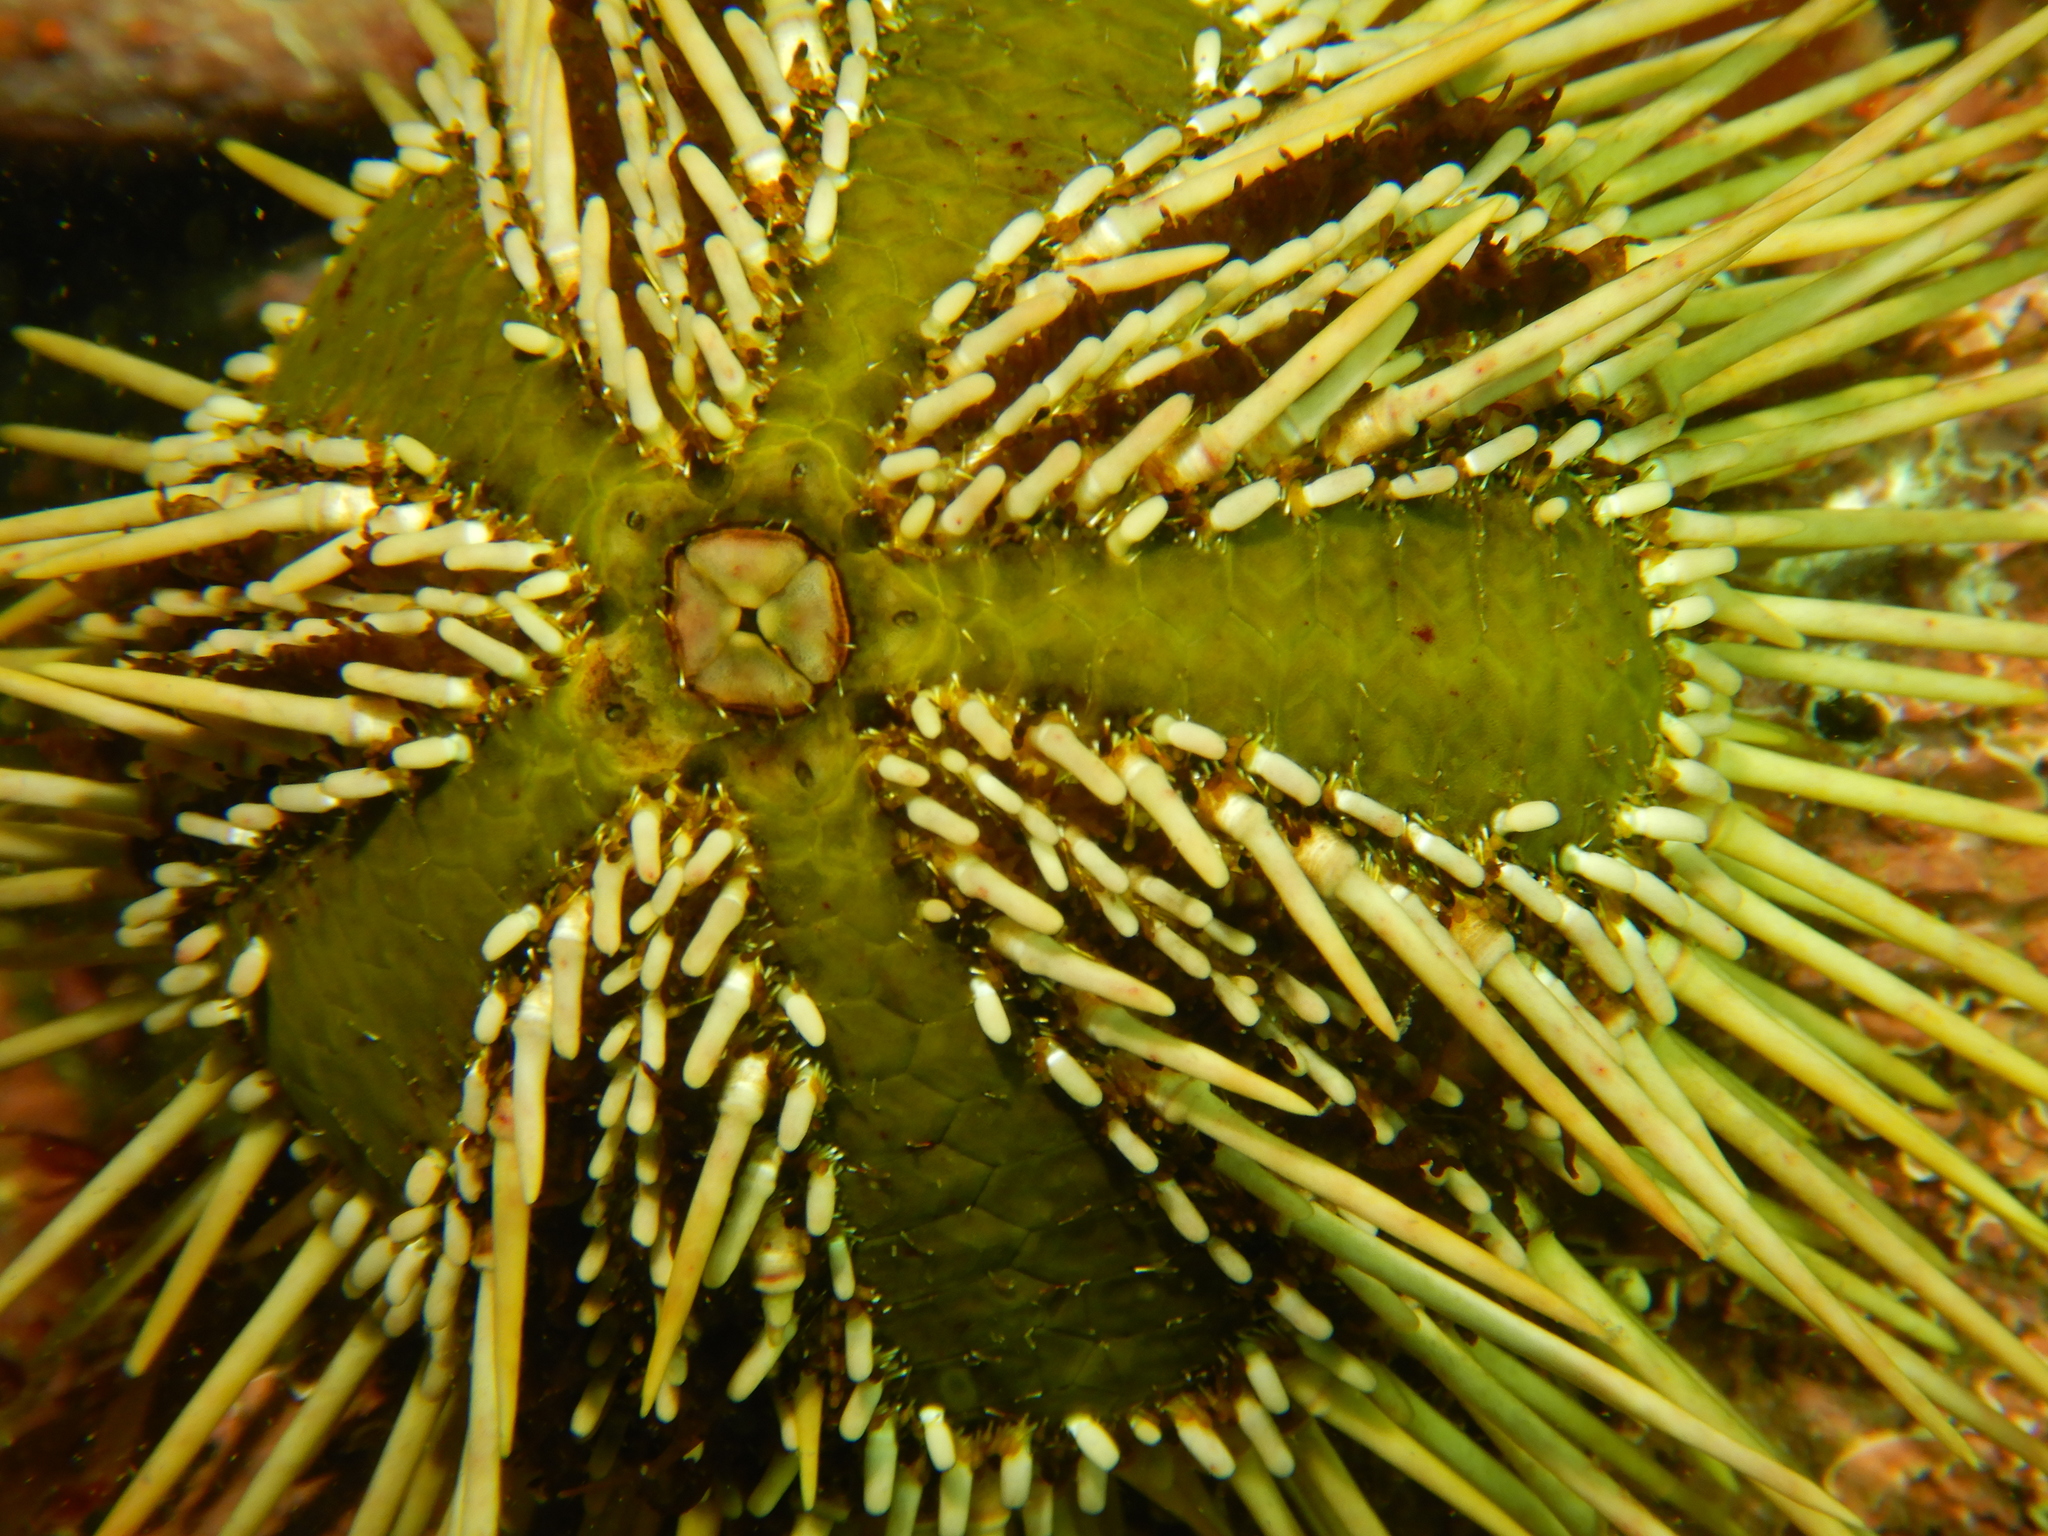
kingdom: Animalia
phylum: Echinodermata
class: Echinoidea
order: Arbacioida
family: Arbaciidae
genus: Arbacia
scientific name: Arbacia dufresnii
